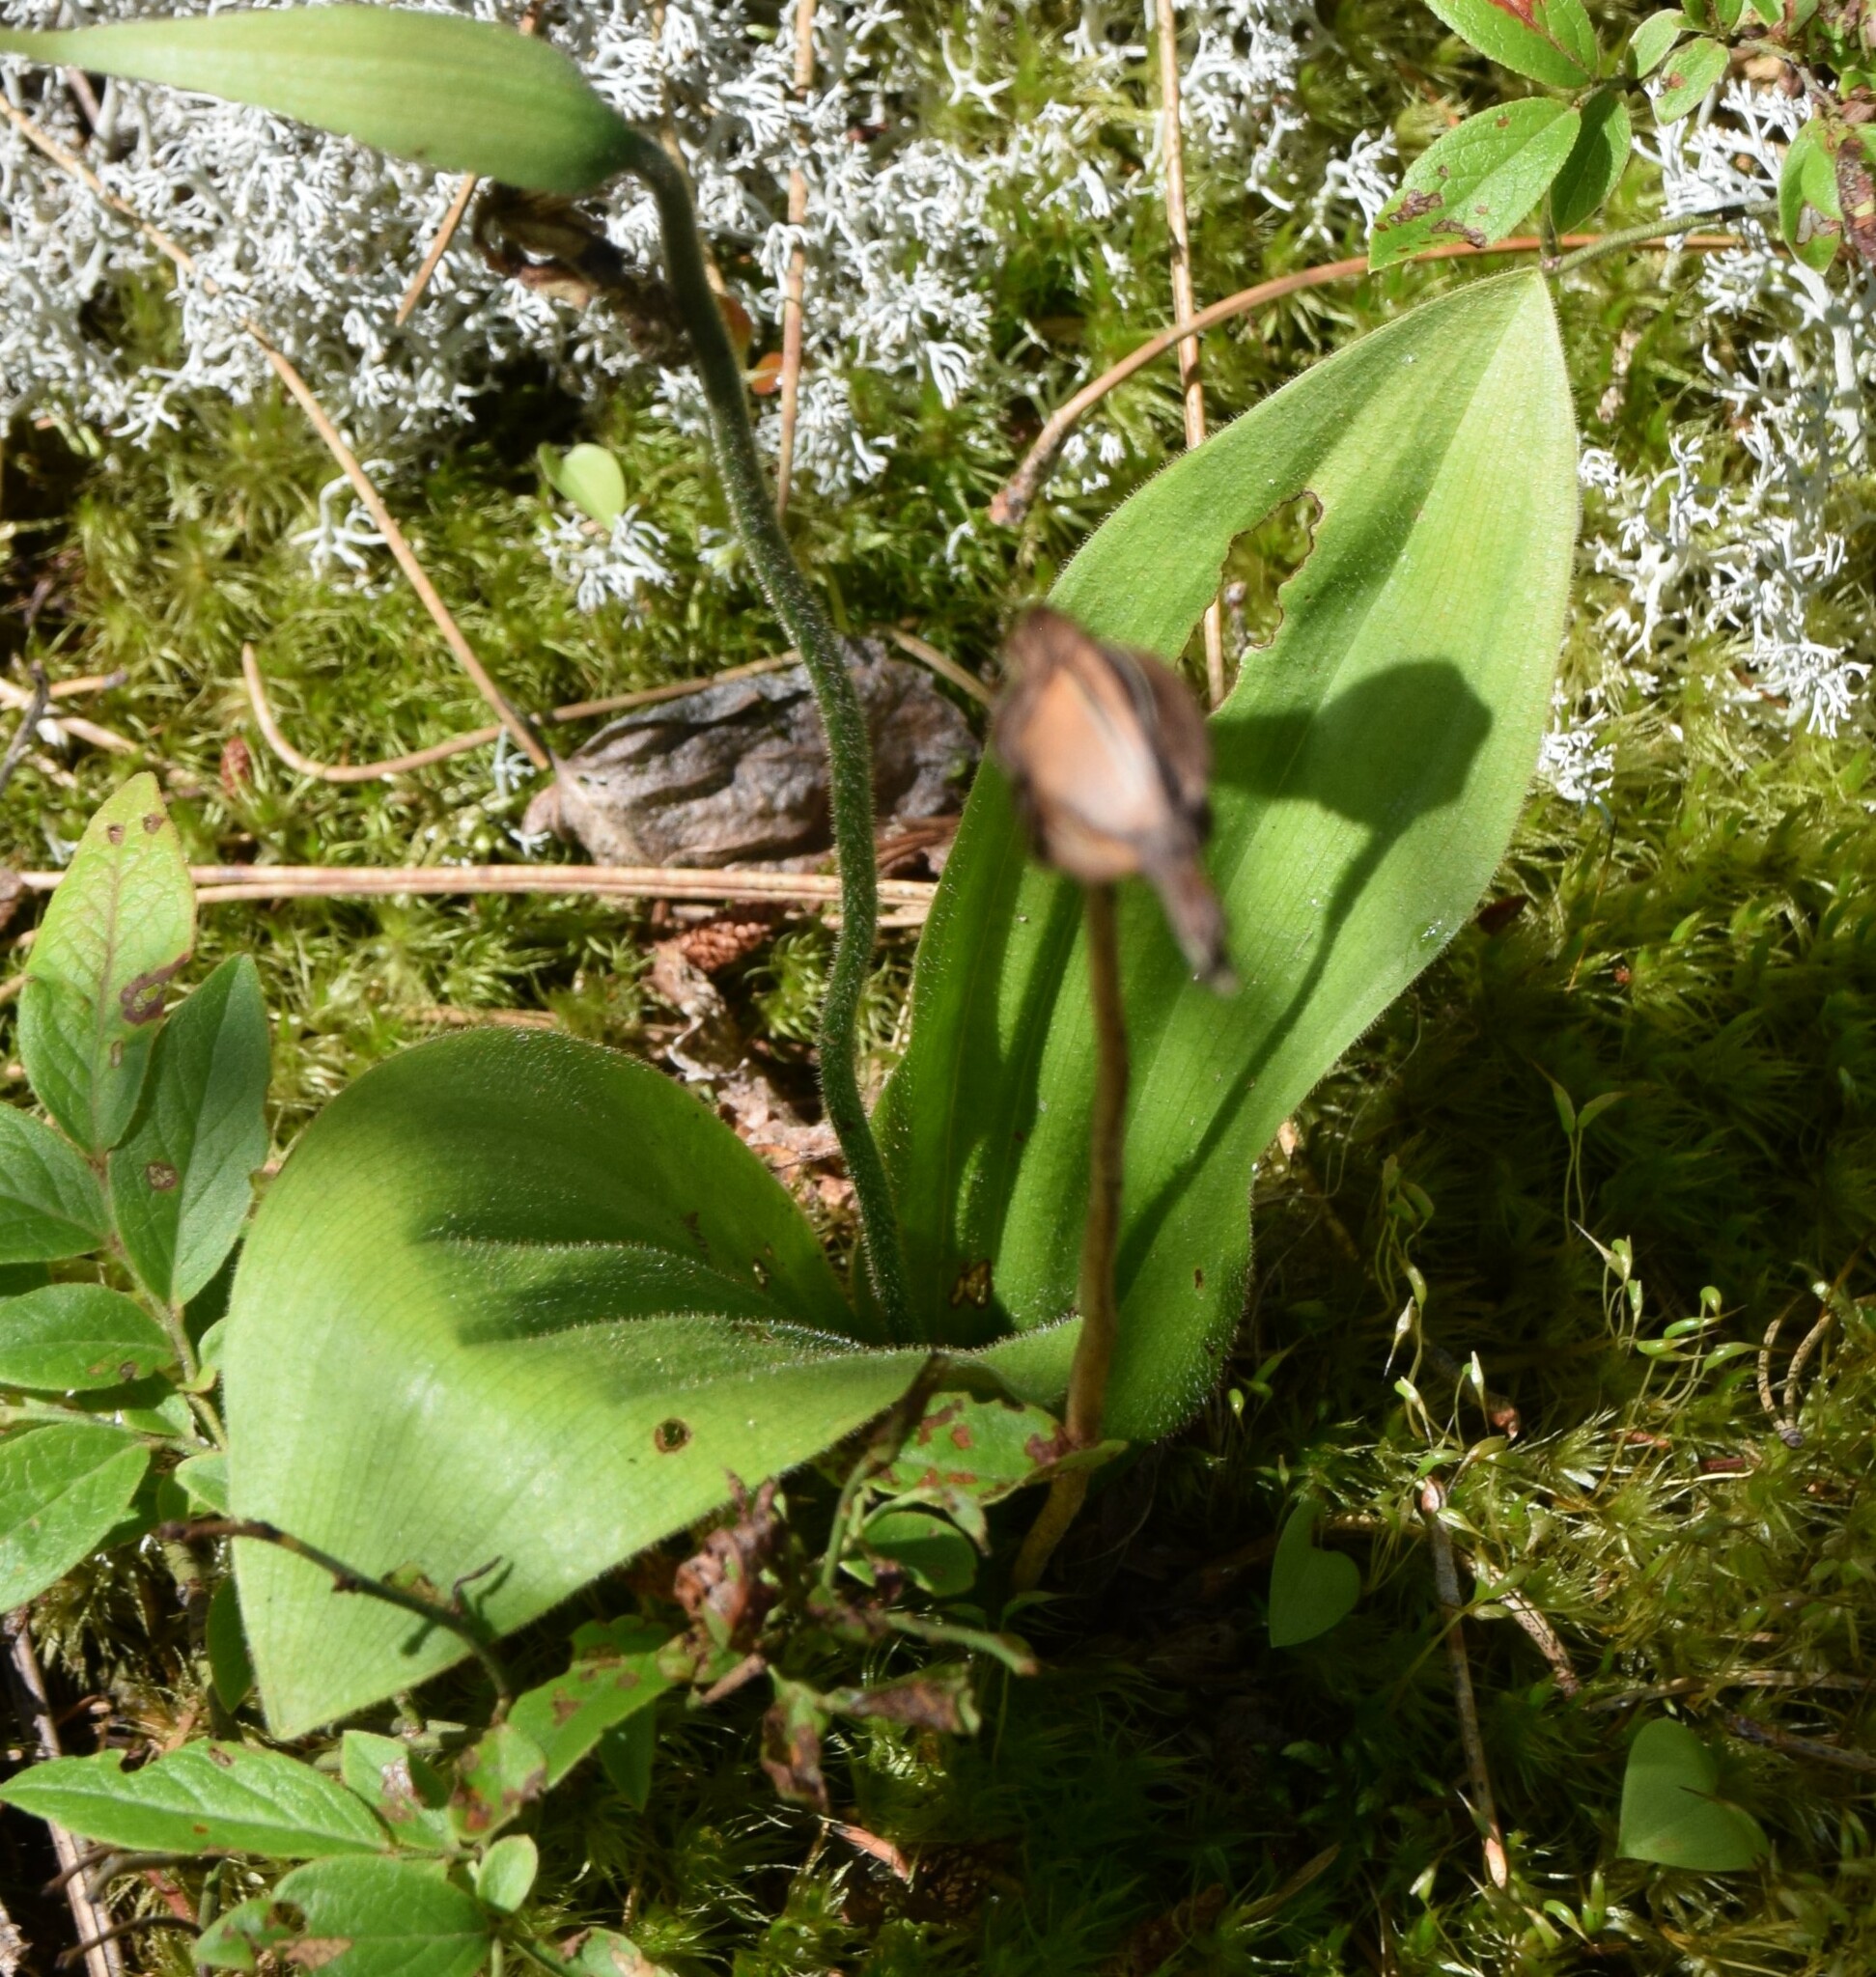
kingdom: Plantae
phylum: Tracheophyta
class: Liliopsida
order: Asparagales
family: Orchidaceae
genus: Cypripedium
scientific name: Cypripedium acaule
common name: Pink lady's-slipper
